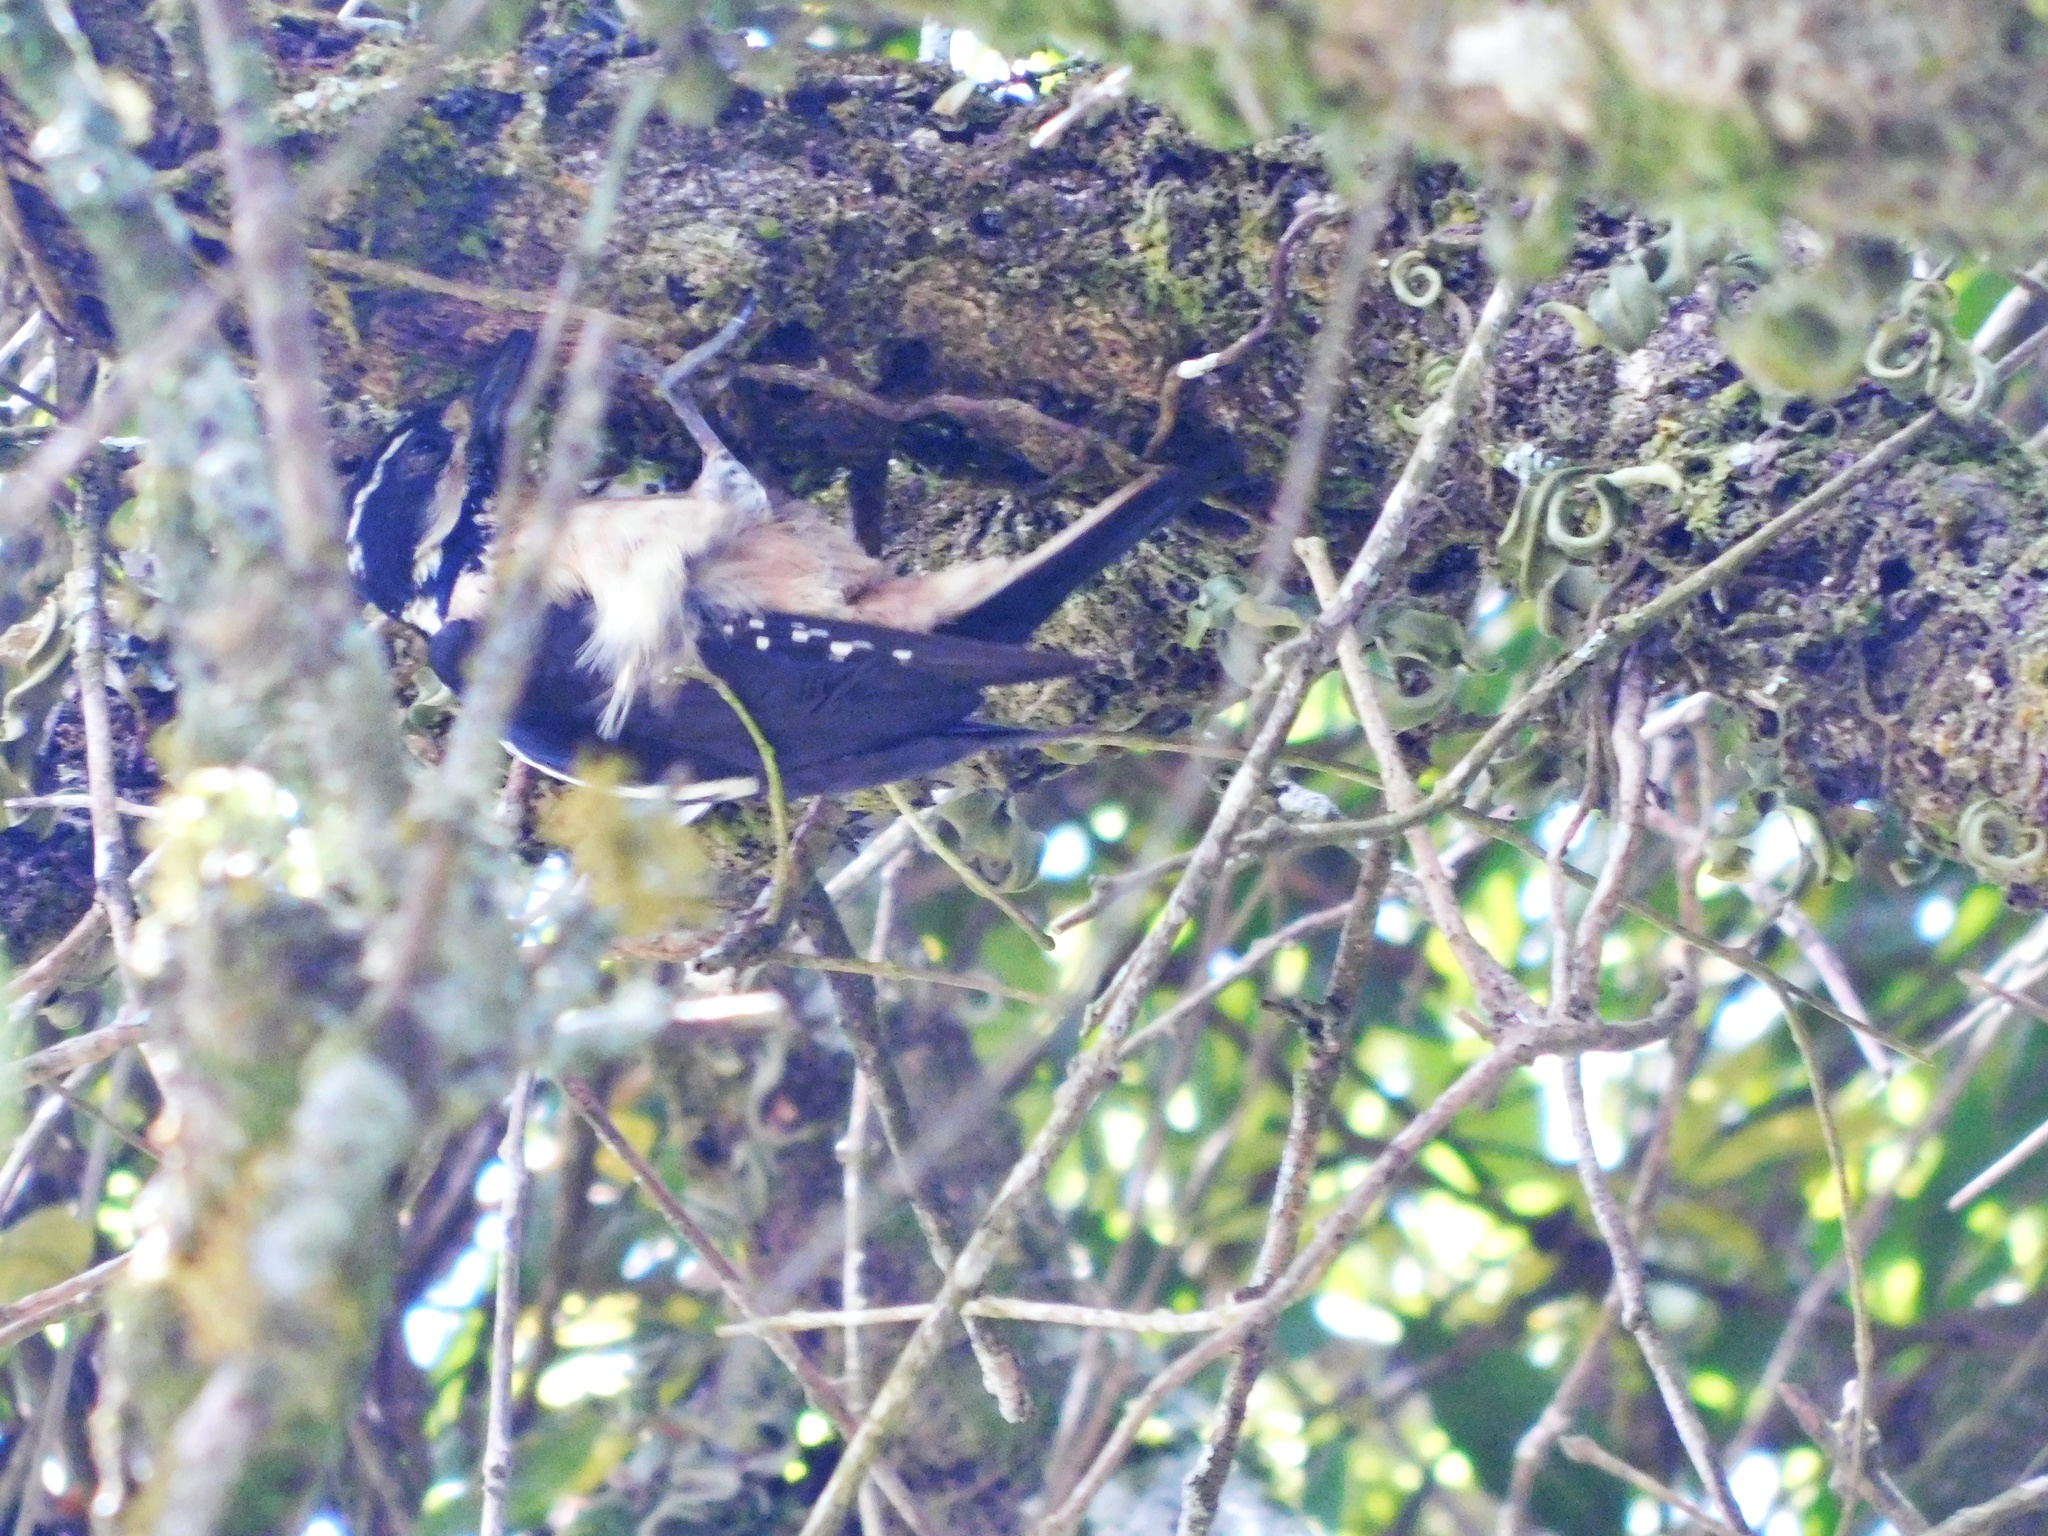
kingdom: Animalia
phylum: Chordata
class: Aves
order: Piciformes
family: Picidae
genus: Leuconotopicus
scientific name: Leuconotopicus villosus
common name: Hairy woodpecker
